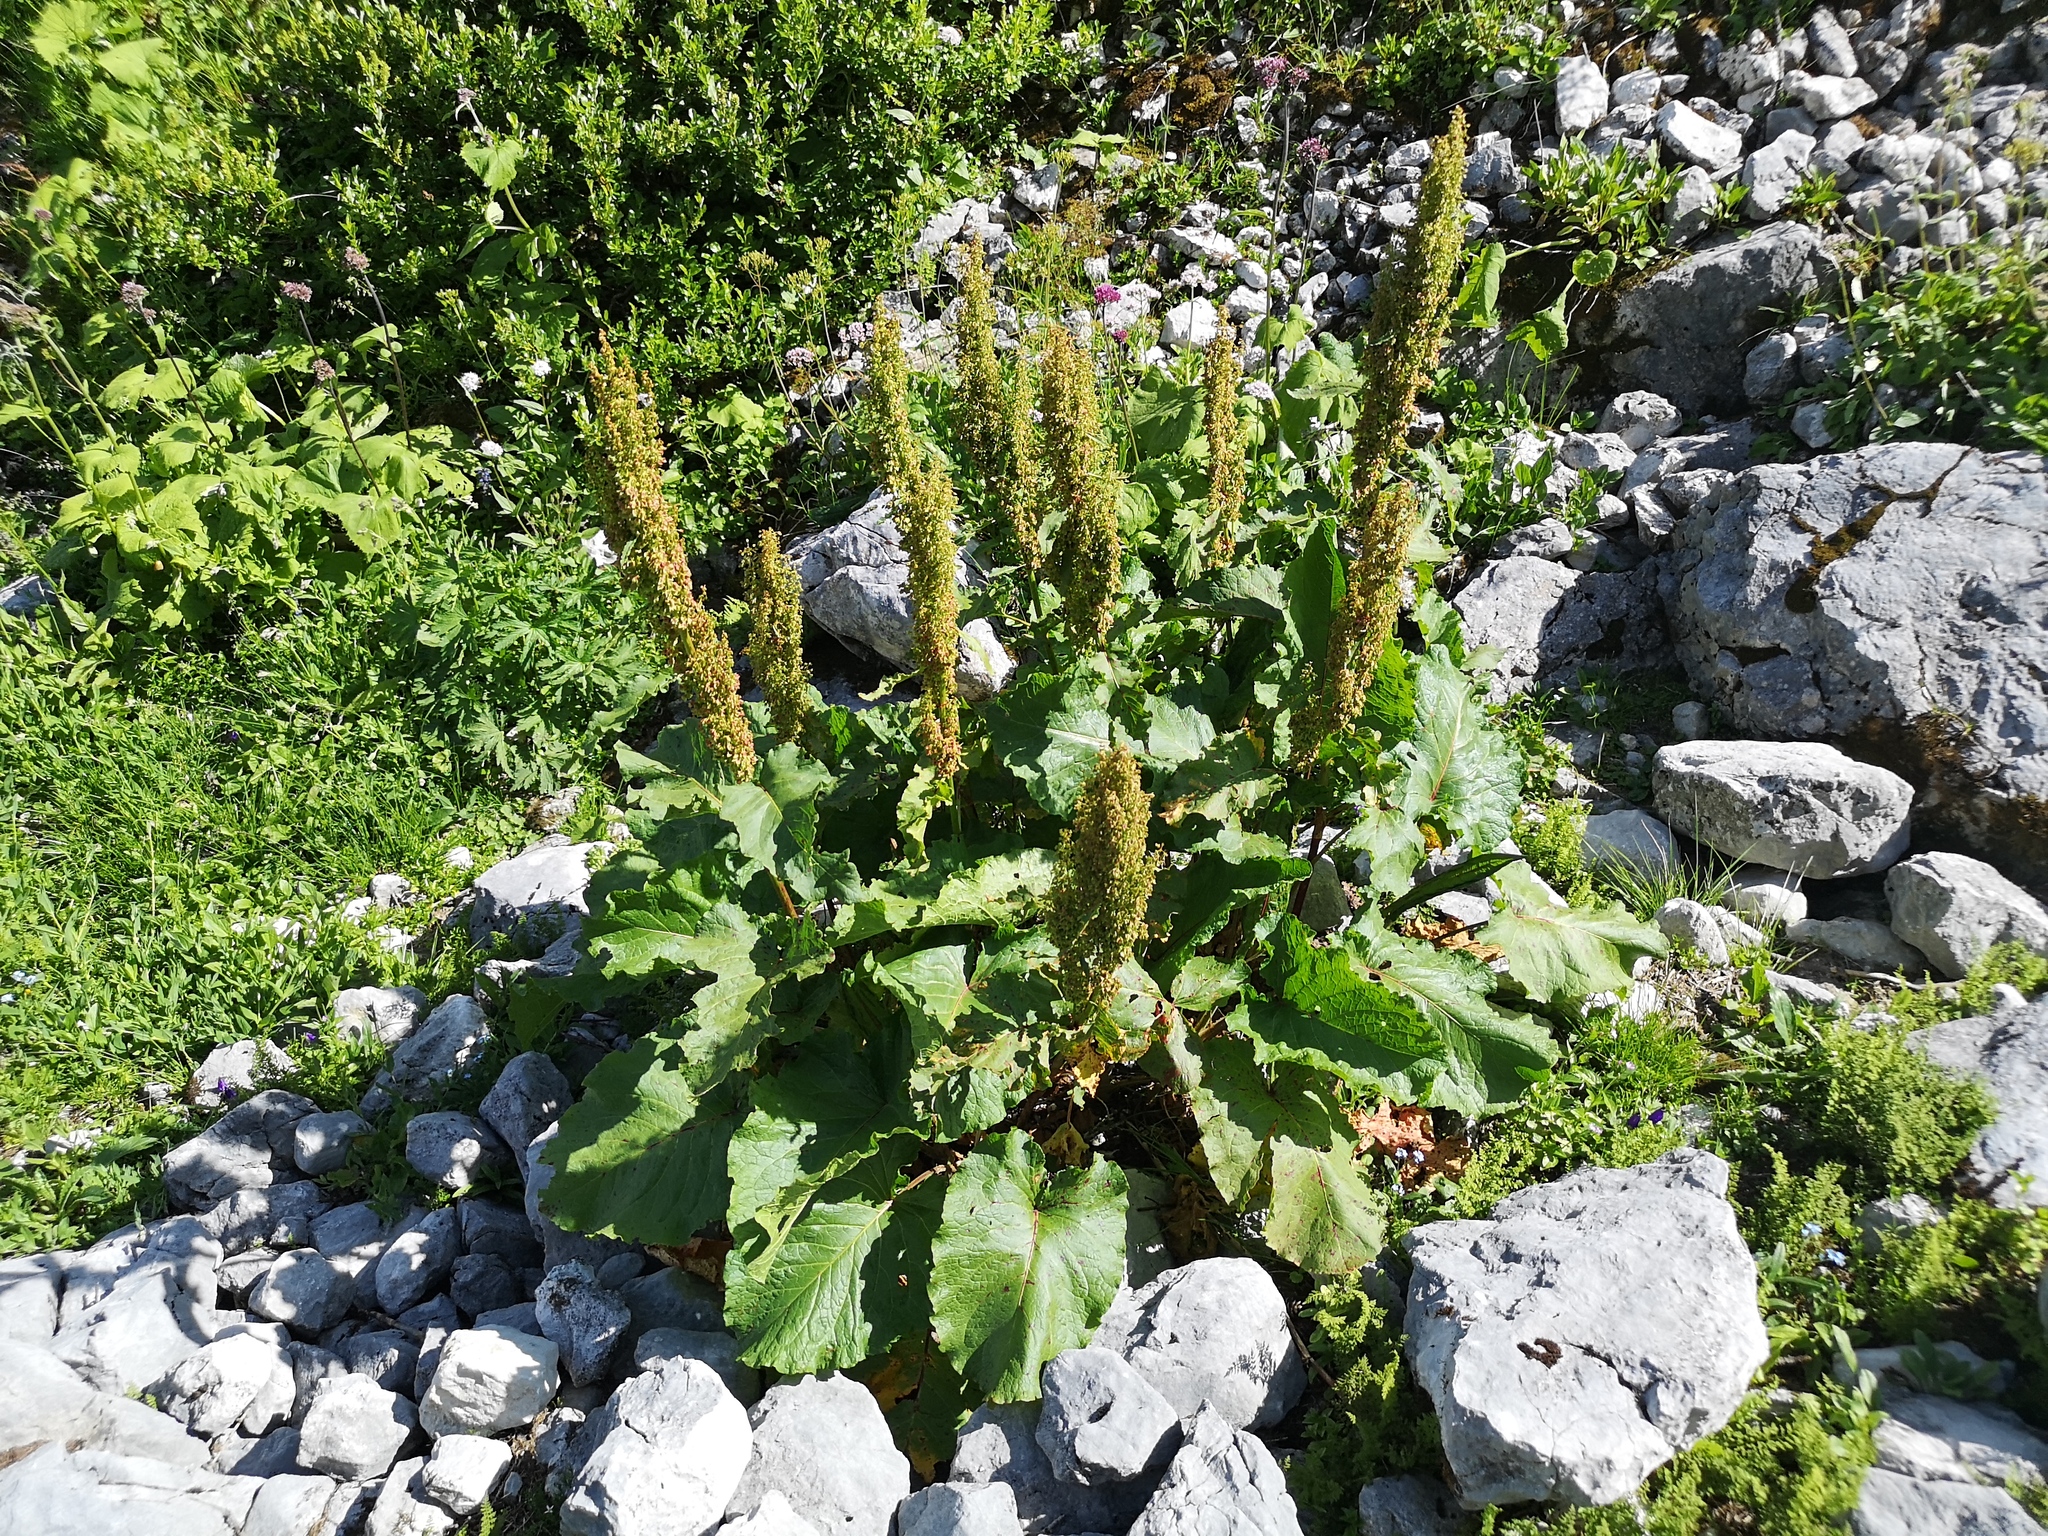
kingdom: Plantae
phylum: Tracheophyta
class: Magnoliopsida
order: Caryophyllales
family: Polygonaceae
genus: Rumex
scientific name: Rumex alpinus
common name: Alpine dock
